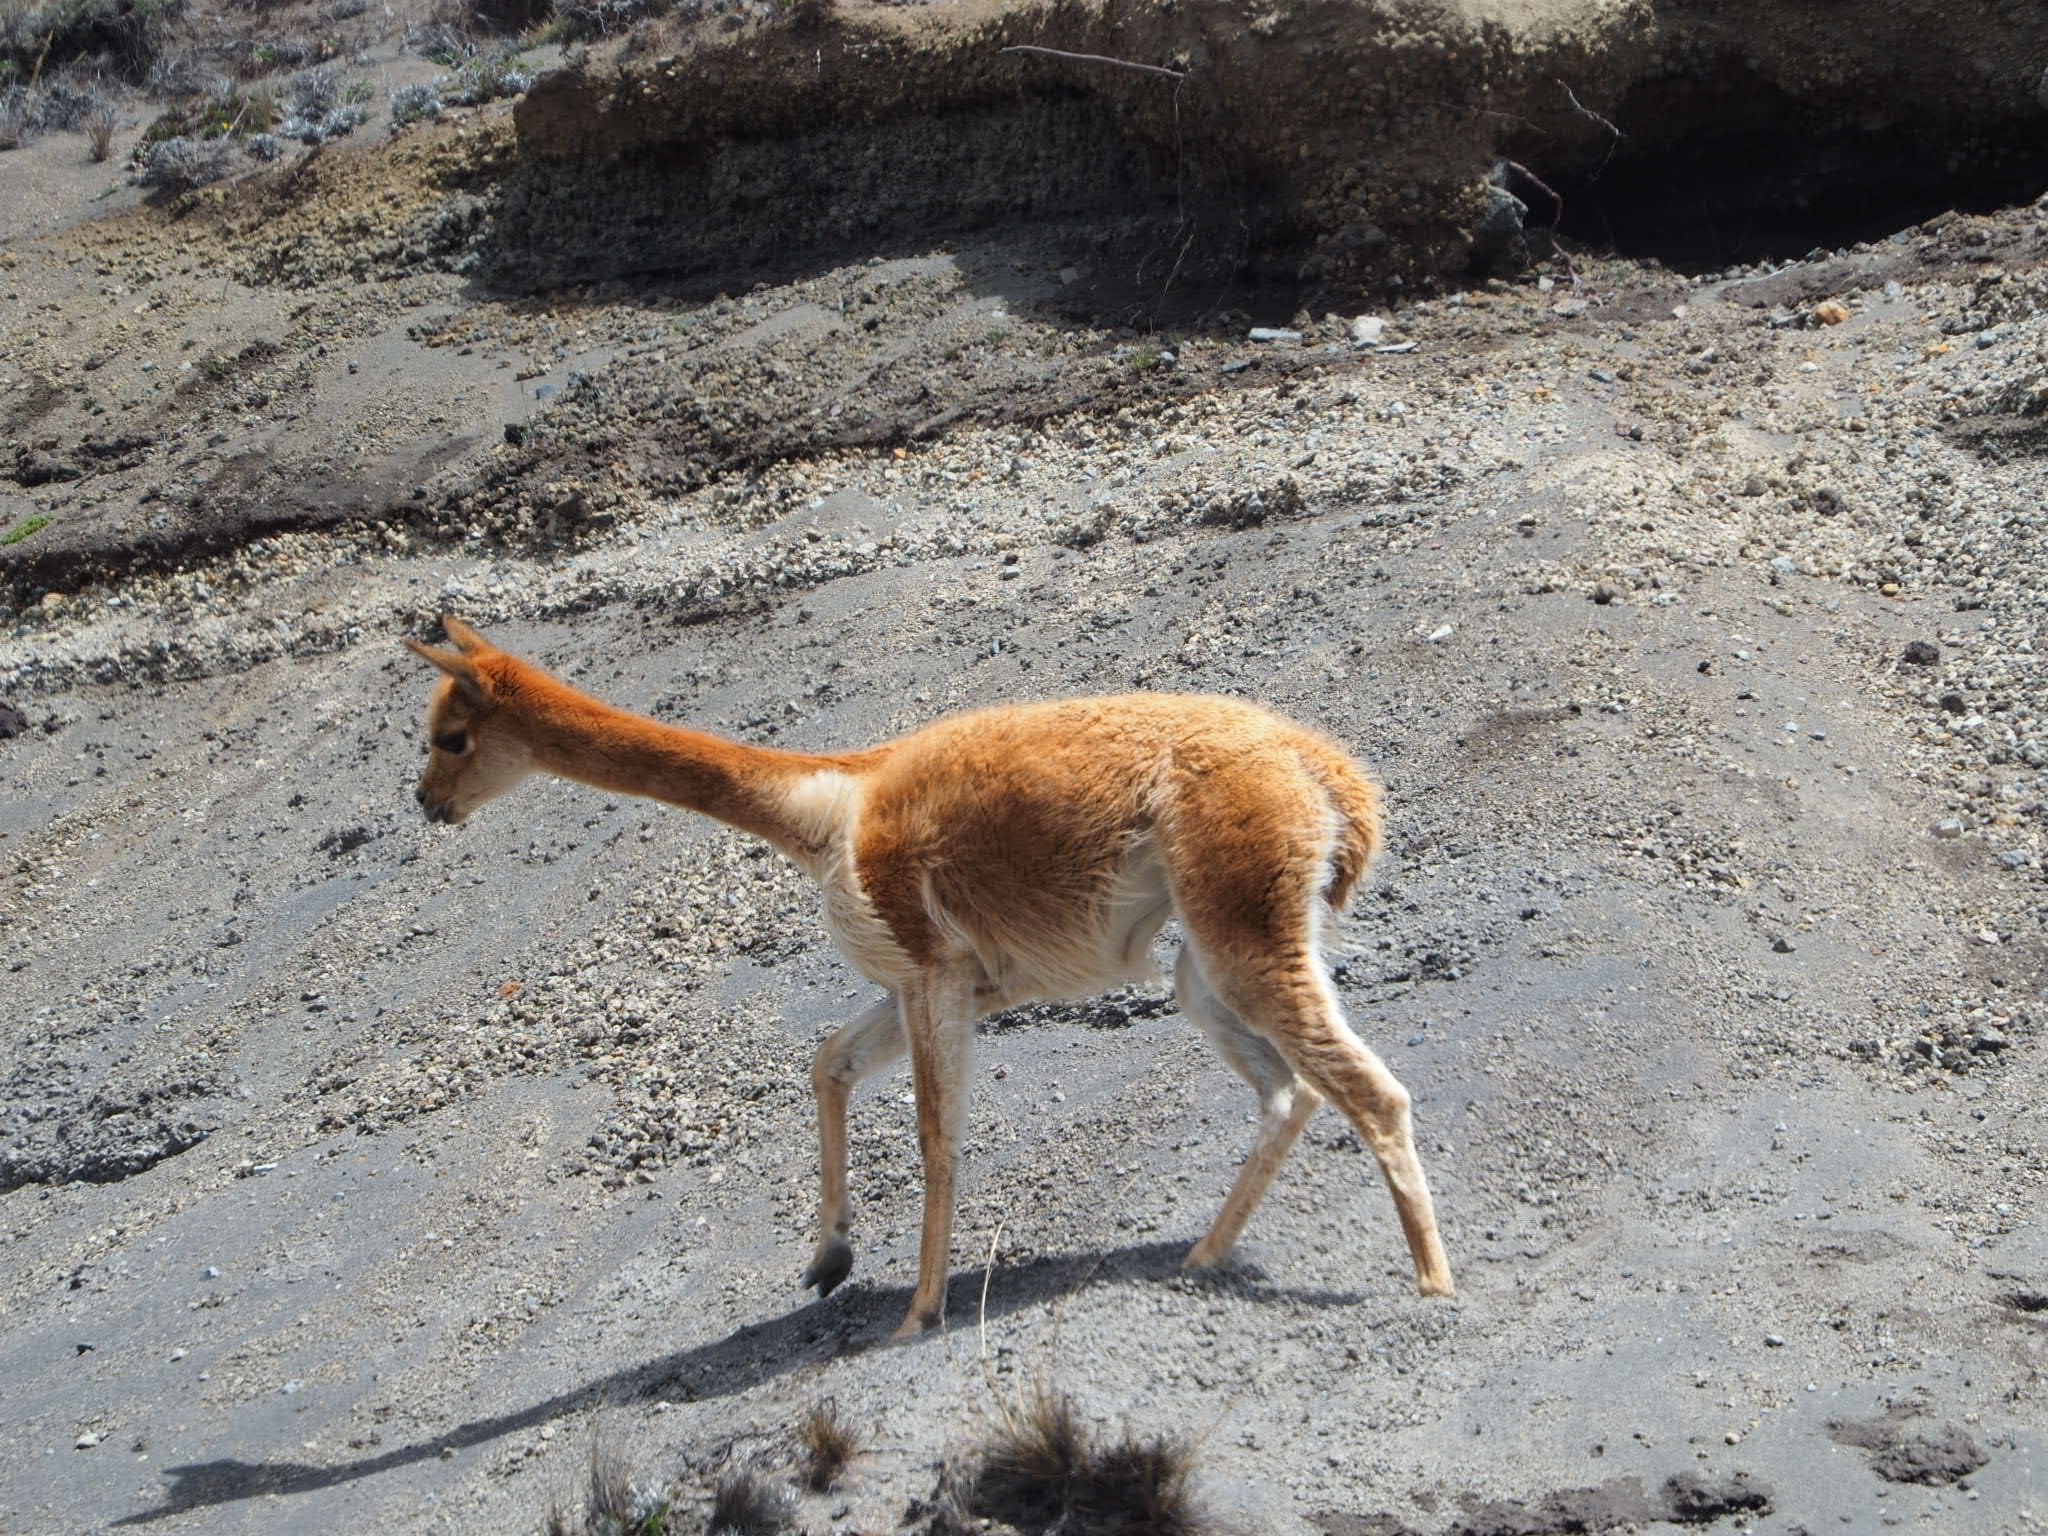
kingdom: Animalia
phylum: Chordata
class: Mammalia
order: Artiodactyla
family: Camelidae
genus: Vicugna
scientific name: Vicugna vicugna
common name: Vicugna
